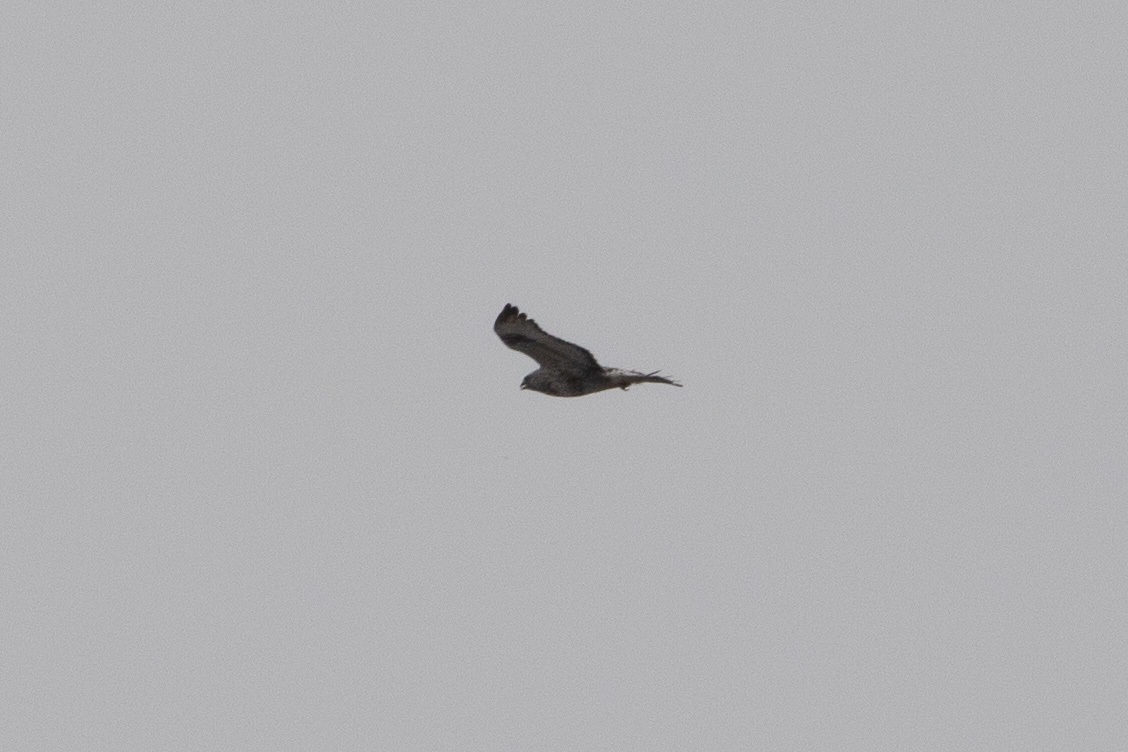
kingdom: Animalia
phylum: Chordata
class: Aves
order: Accipitriformes
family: Accipitridae
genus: Buteo
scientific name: Buteo lagopus
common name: Rough-legged buzzard
